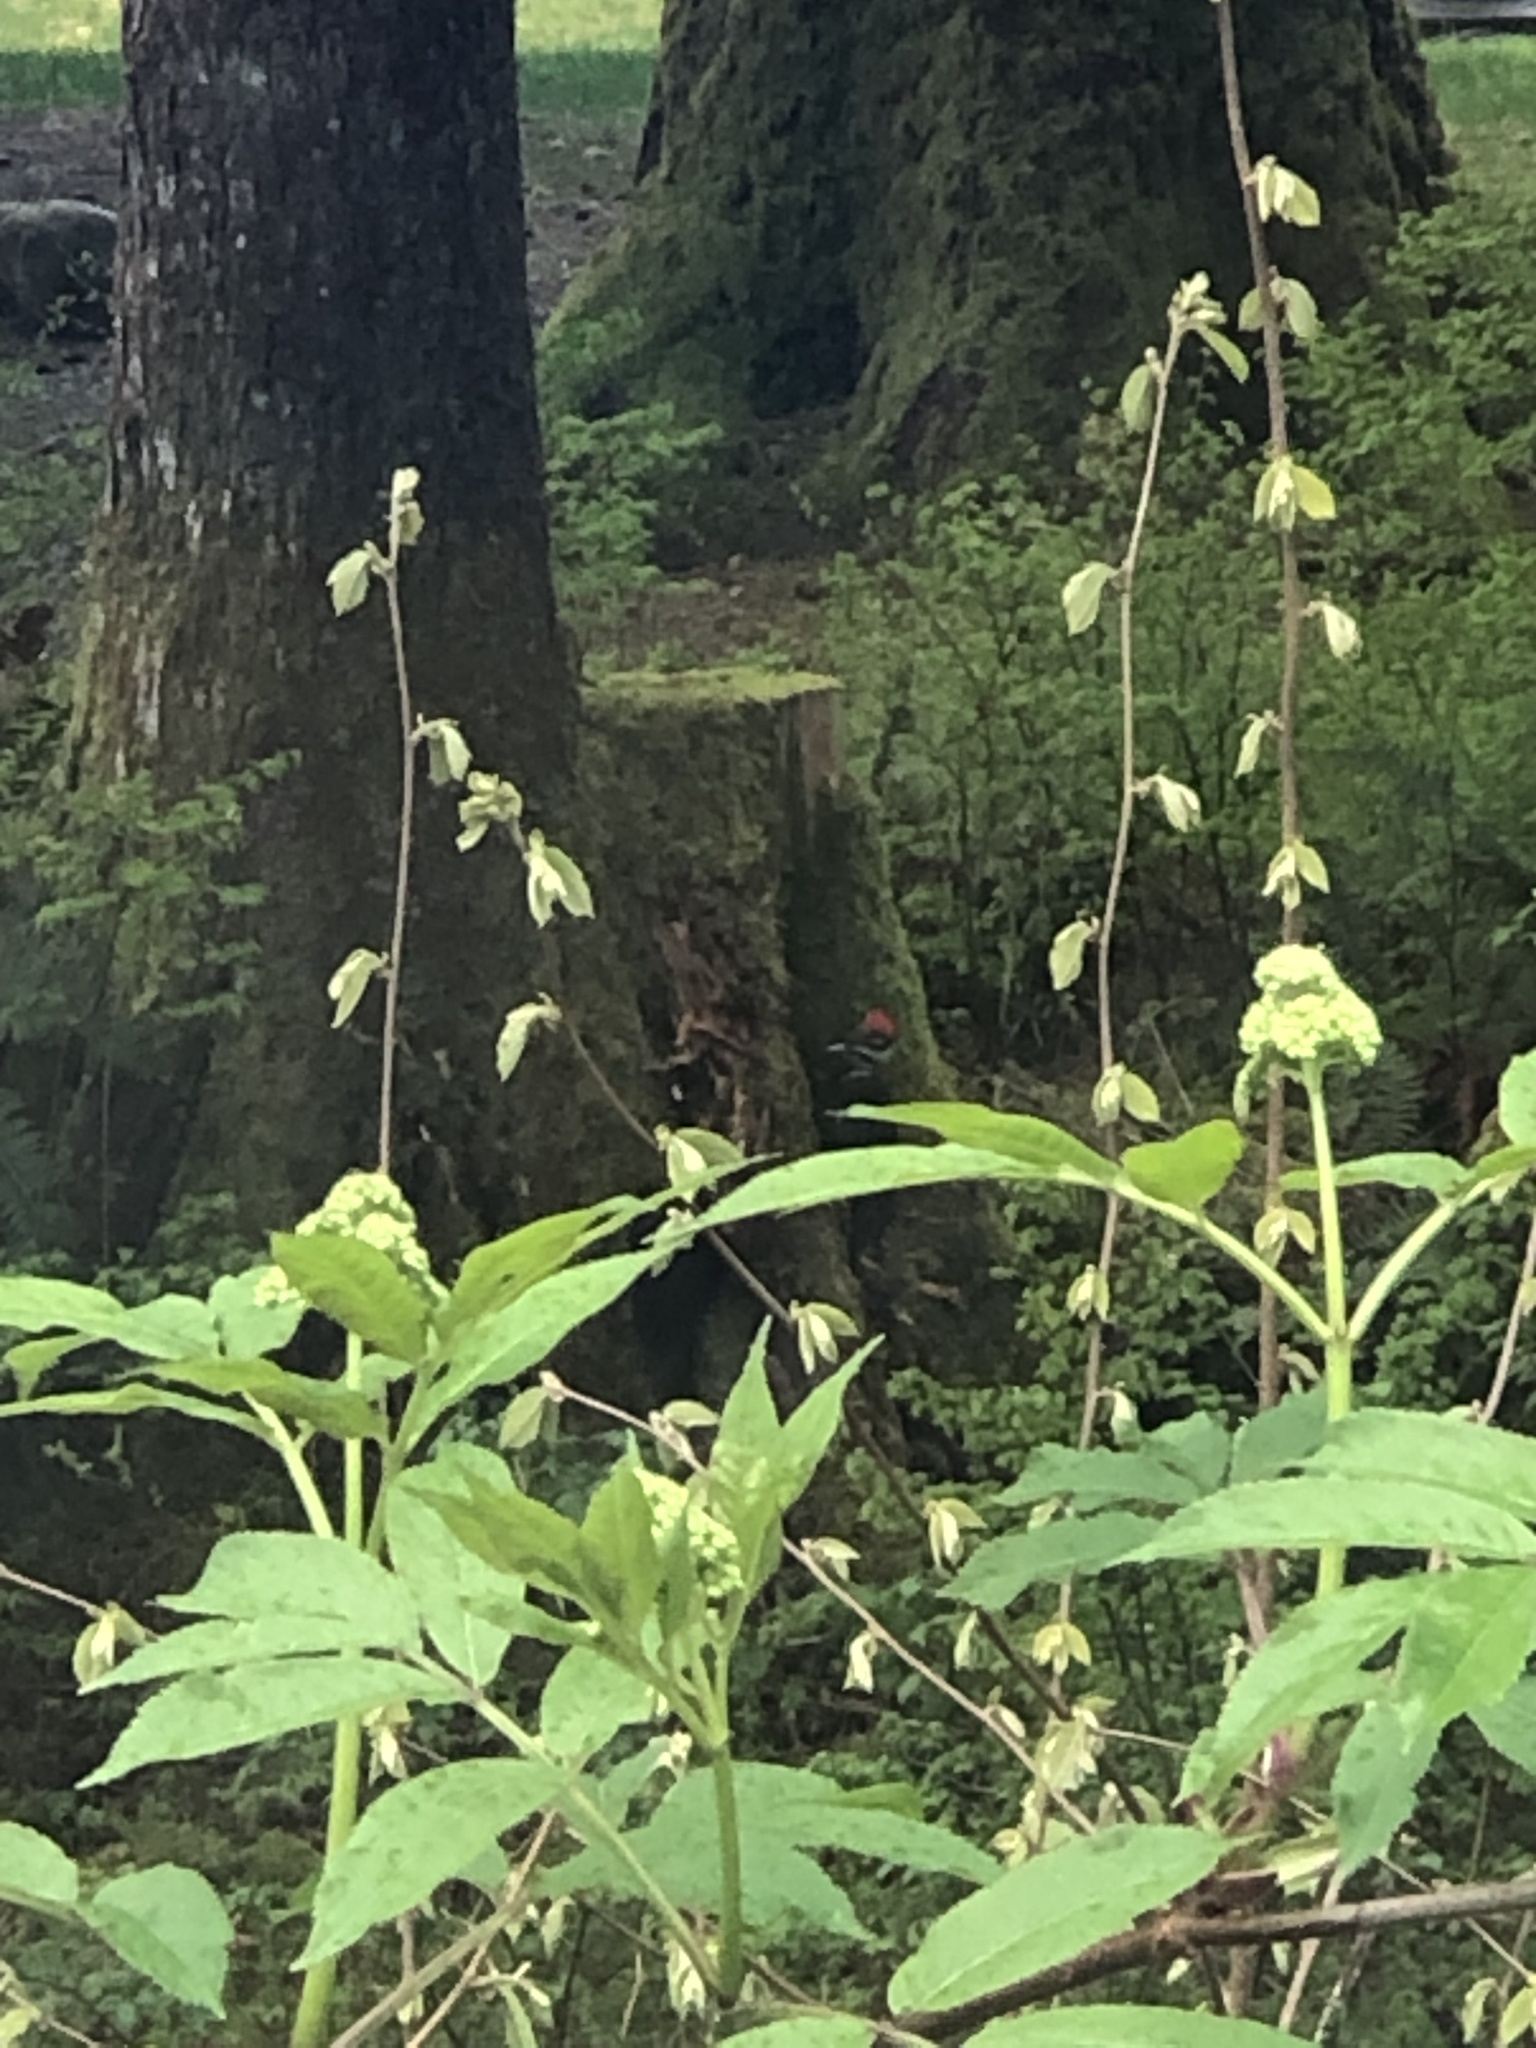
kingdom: Animalia
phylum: Chordata
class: Aves
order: Piciformes
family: Picidae
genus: Dryocopus
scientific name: Dryocopus pileatus
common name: Pileated woodpecker
